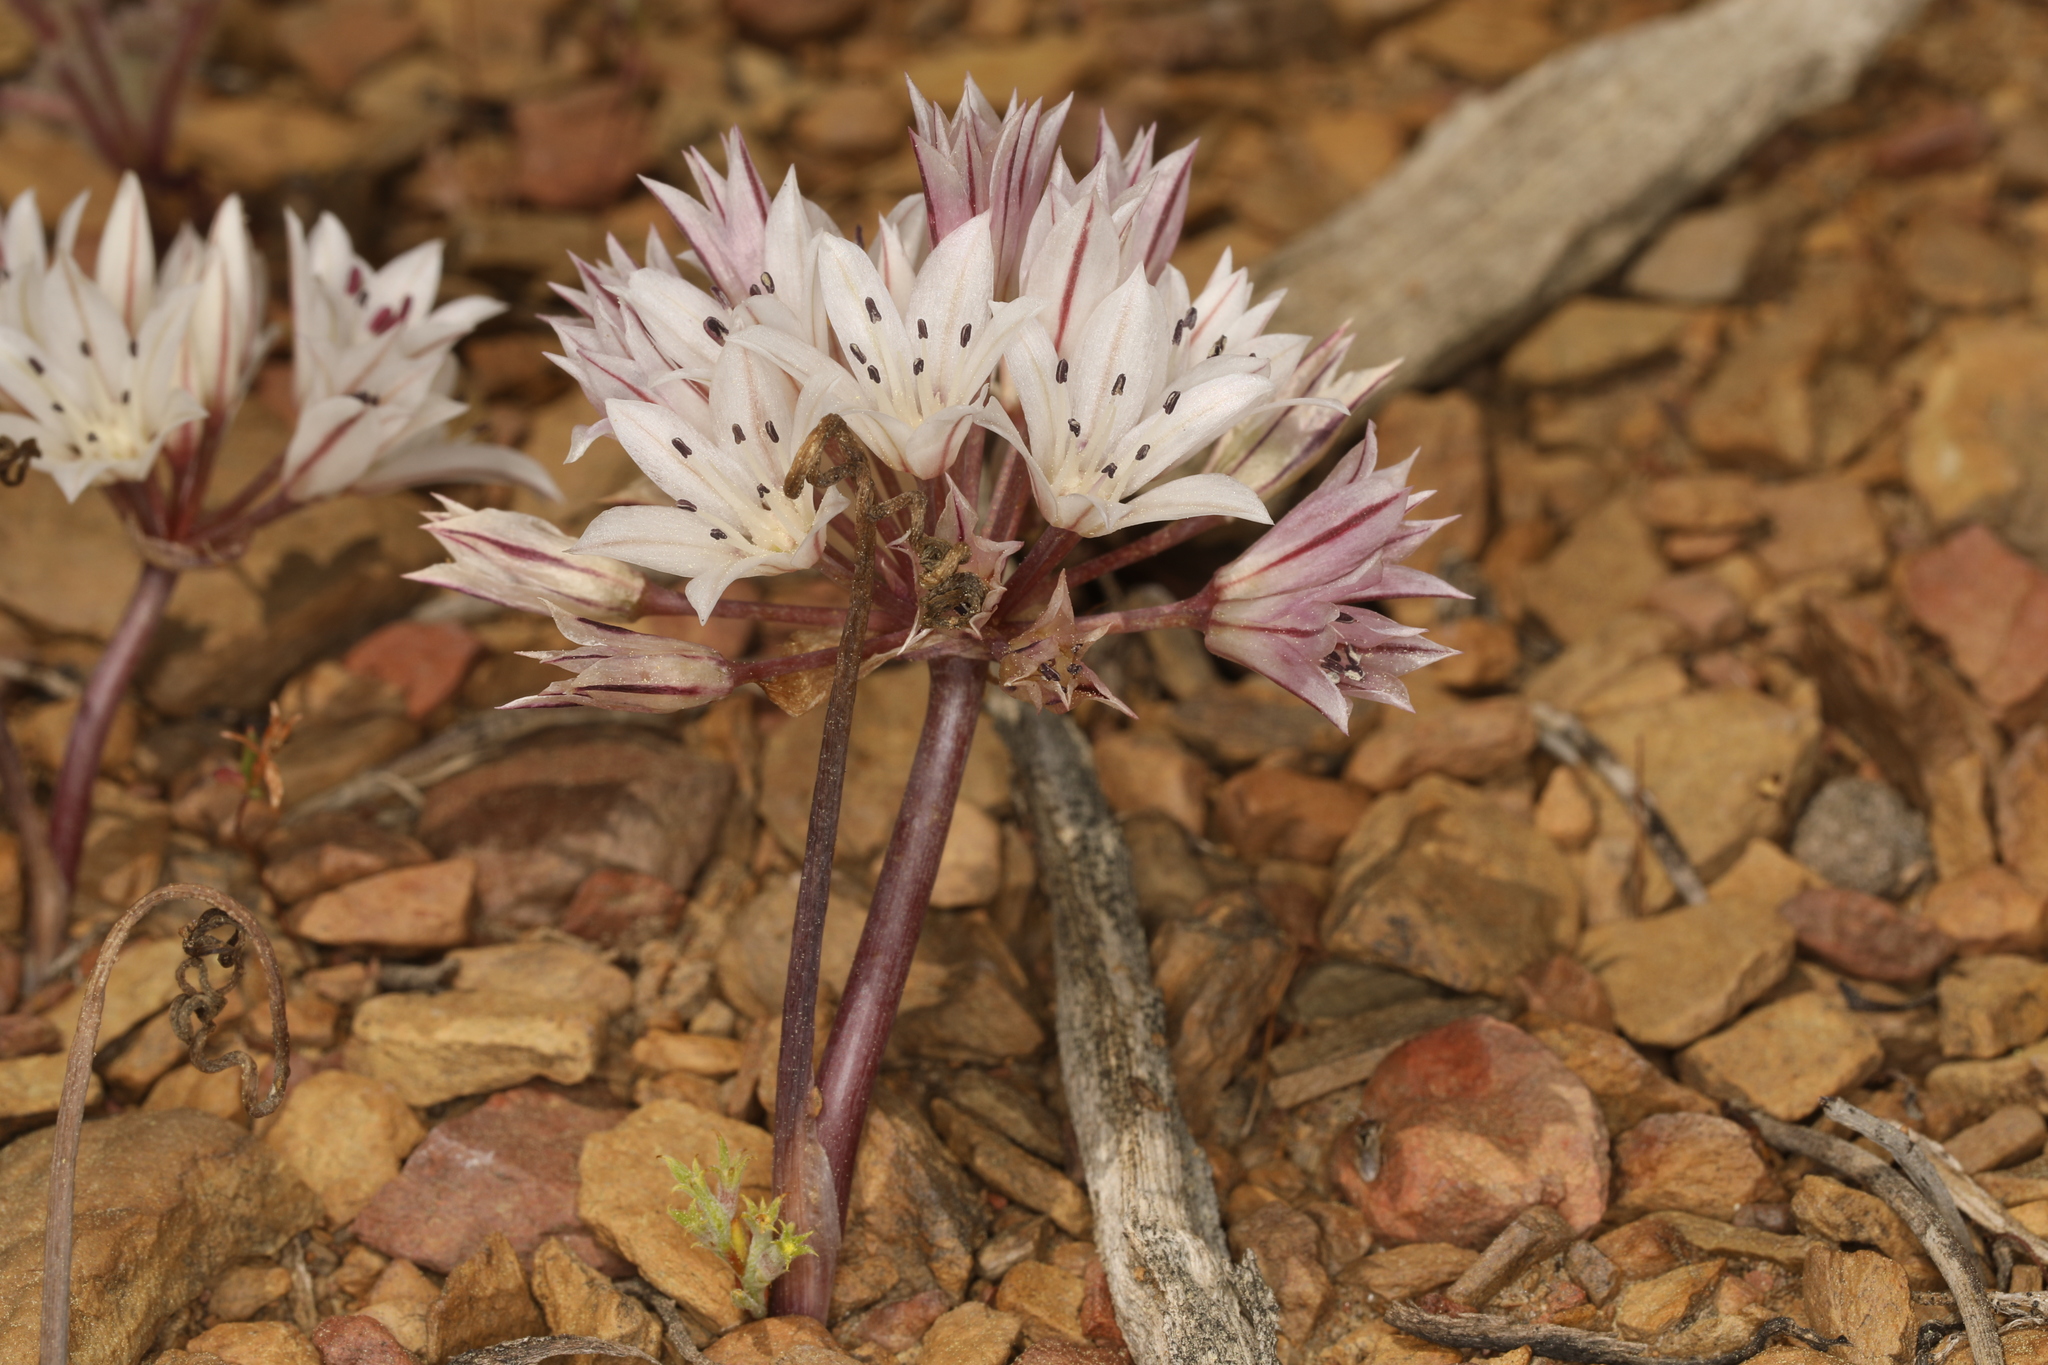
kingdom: Plantae
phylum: Tracheophyta
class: Liliopsida
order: Asparagales
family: Amaryllidaceae
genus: Allium
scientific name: Allium atrorubens
